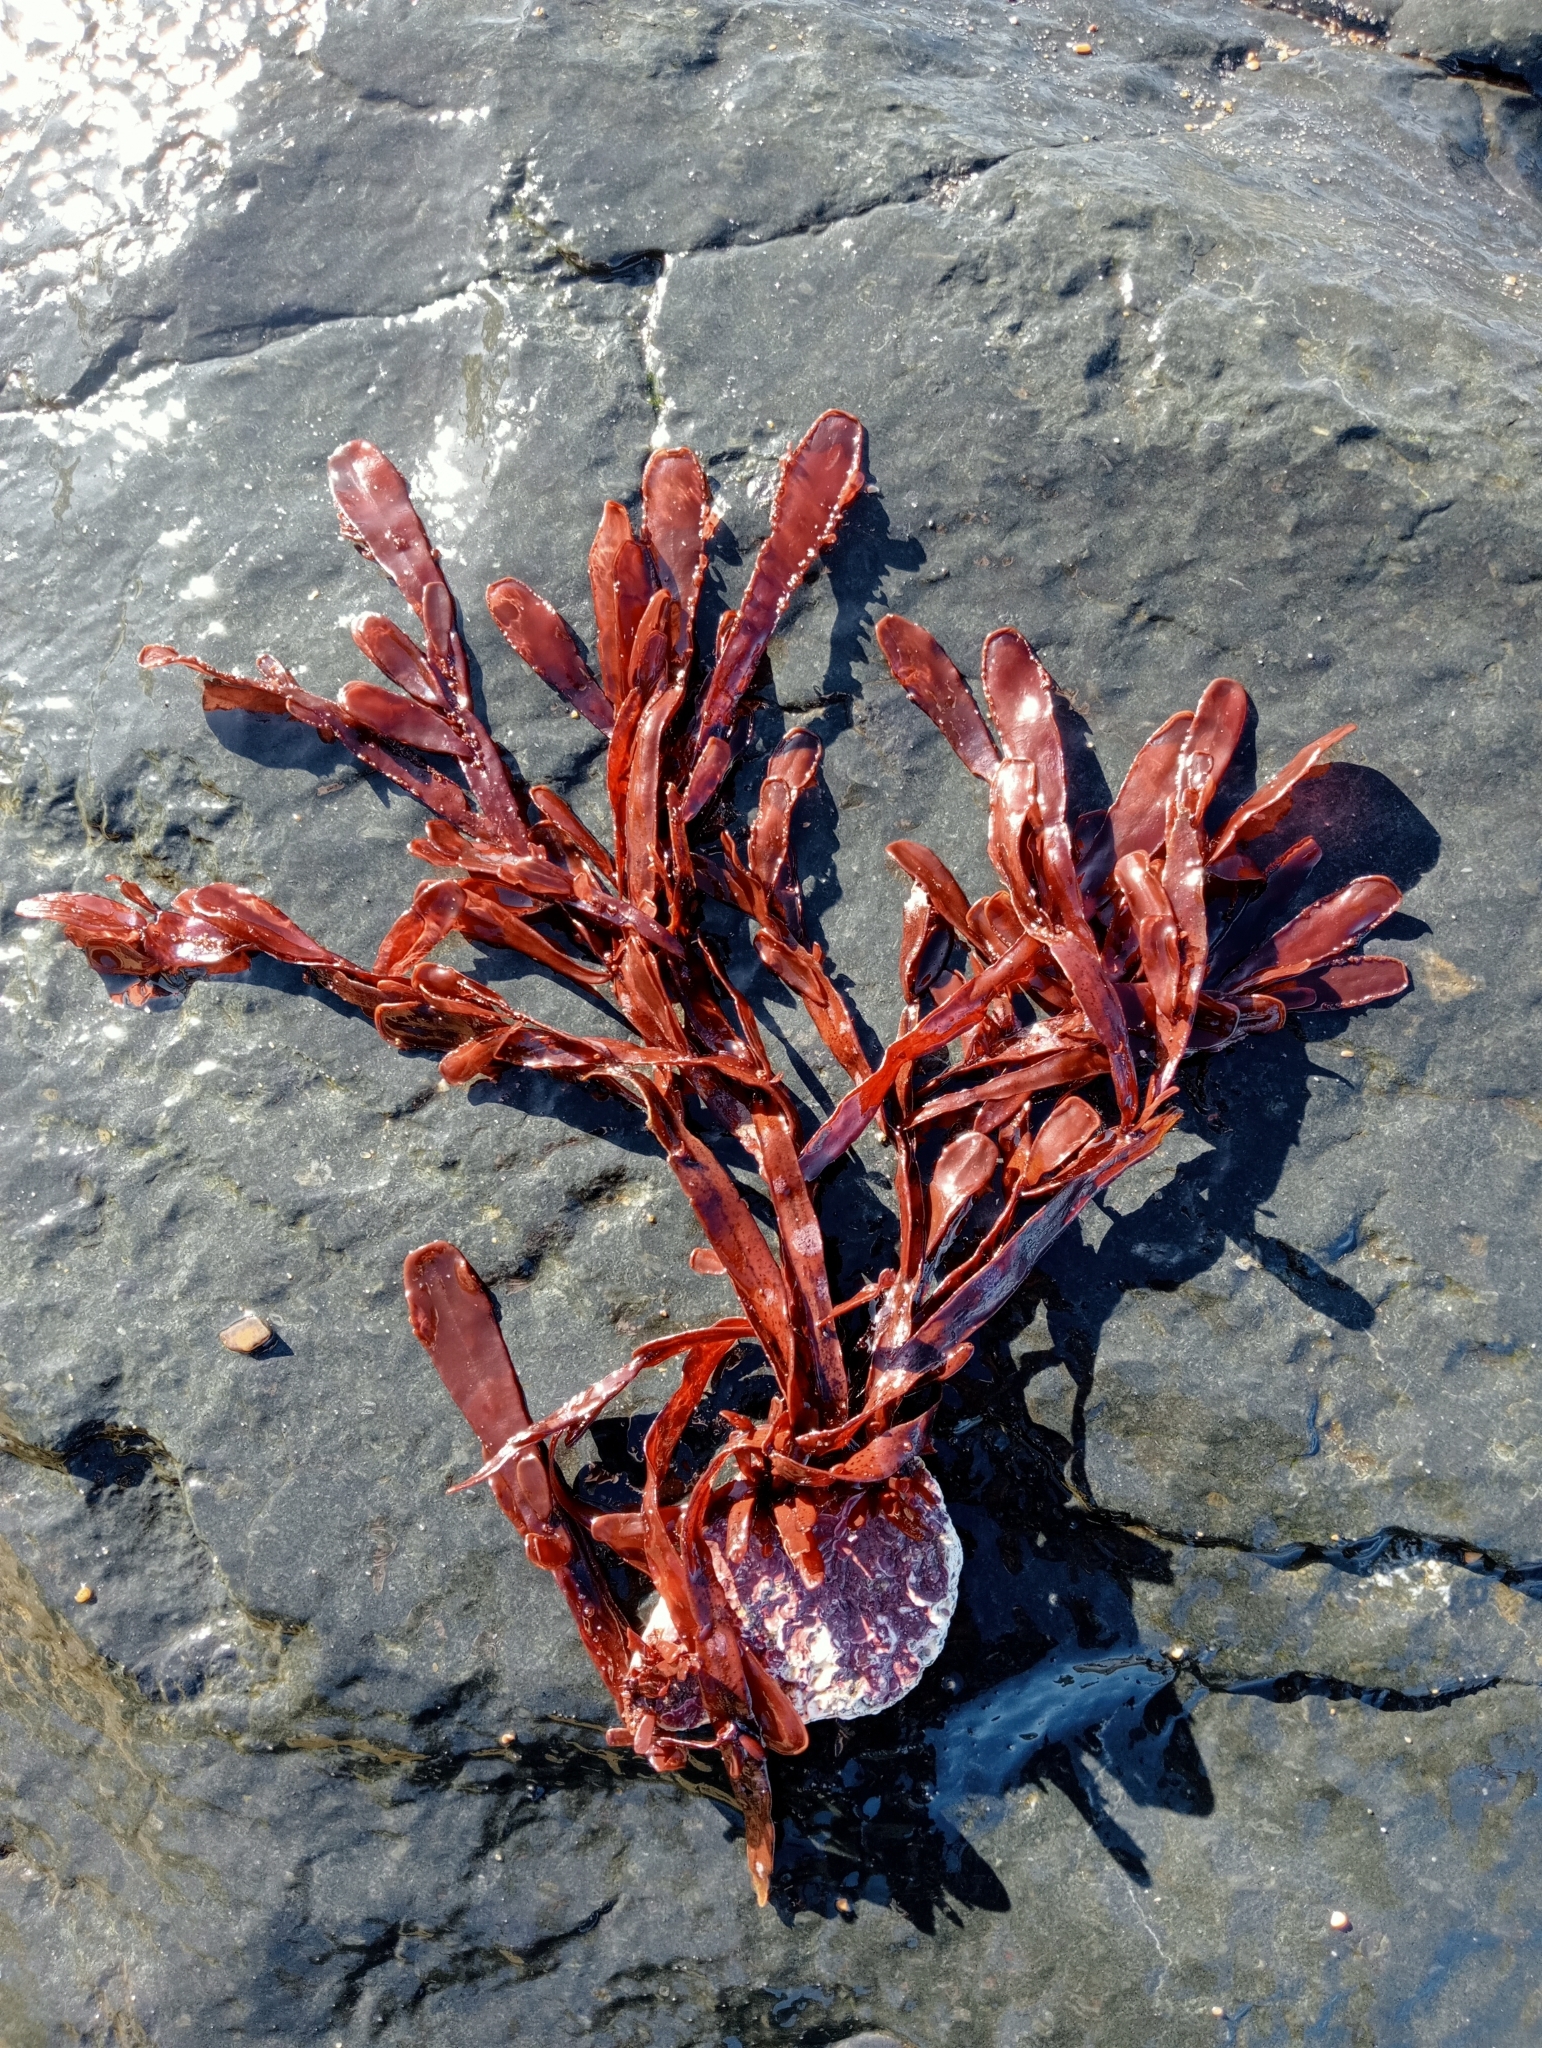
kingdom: Plantae
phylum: Rhodophyta
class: Florideophyceae
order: Ceramiales
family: Rhodomelaceae
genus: Adamsiella
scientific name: Adamsiella angustifolia
